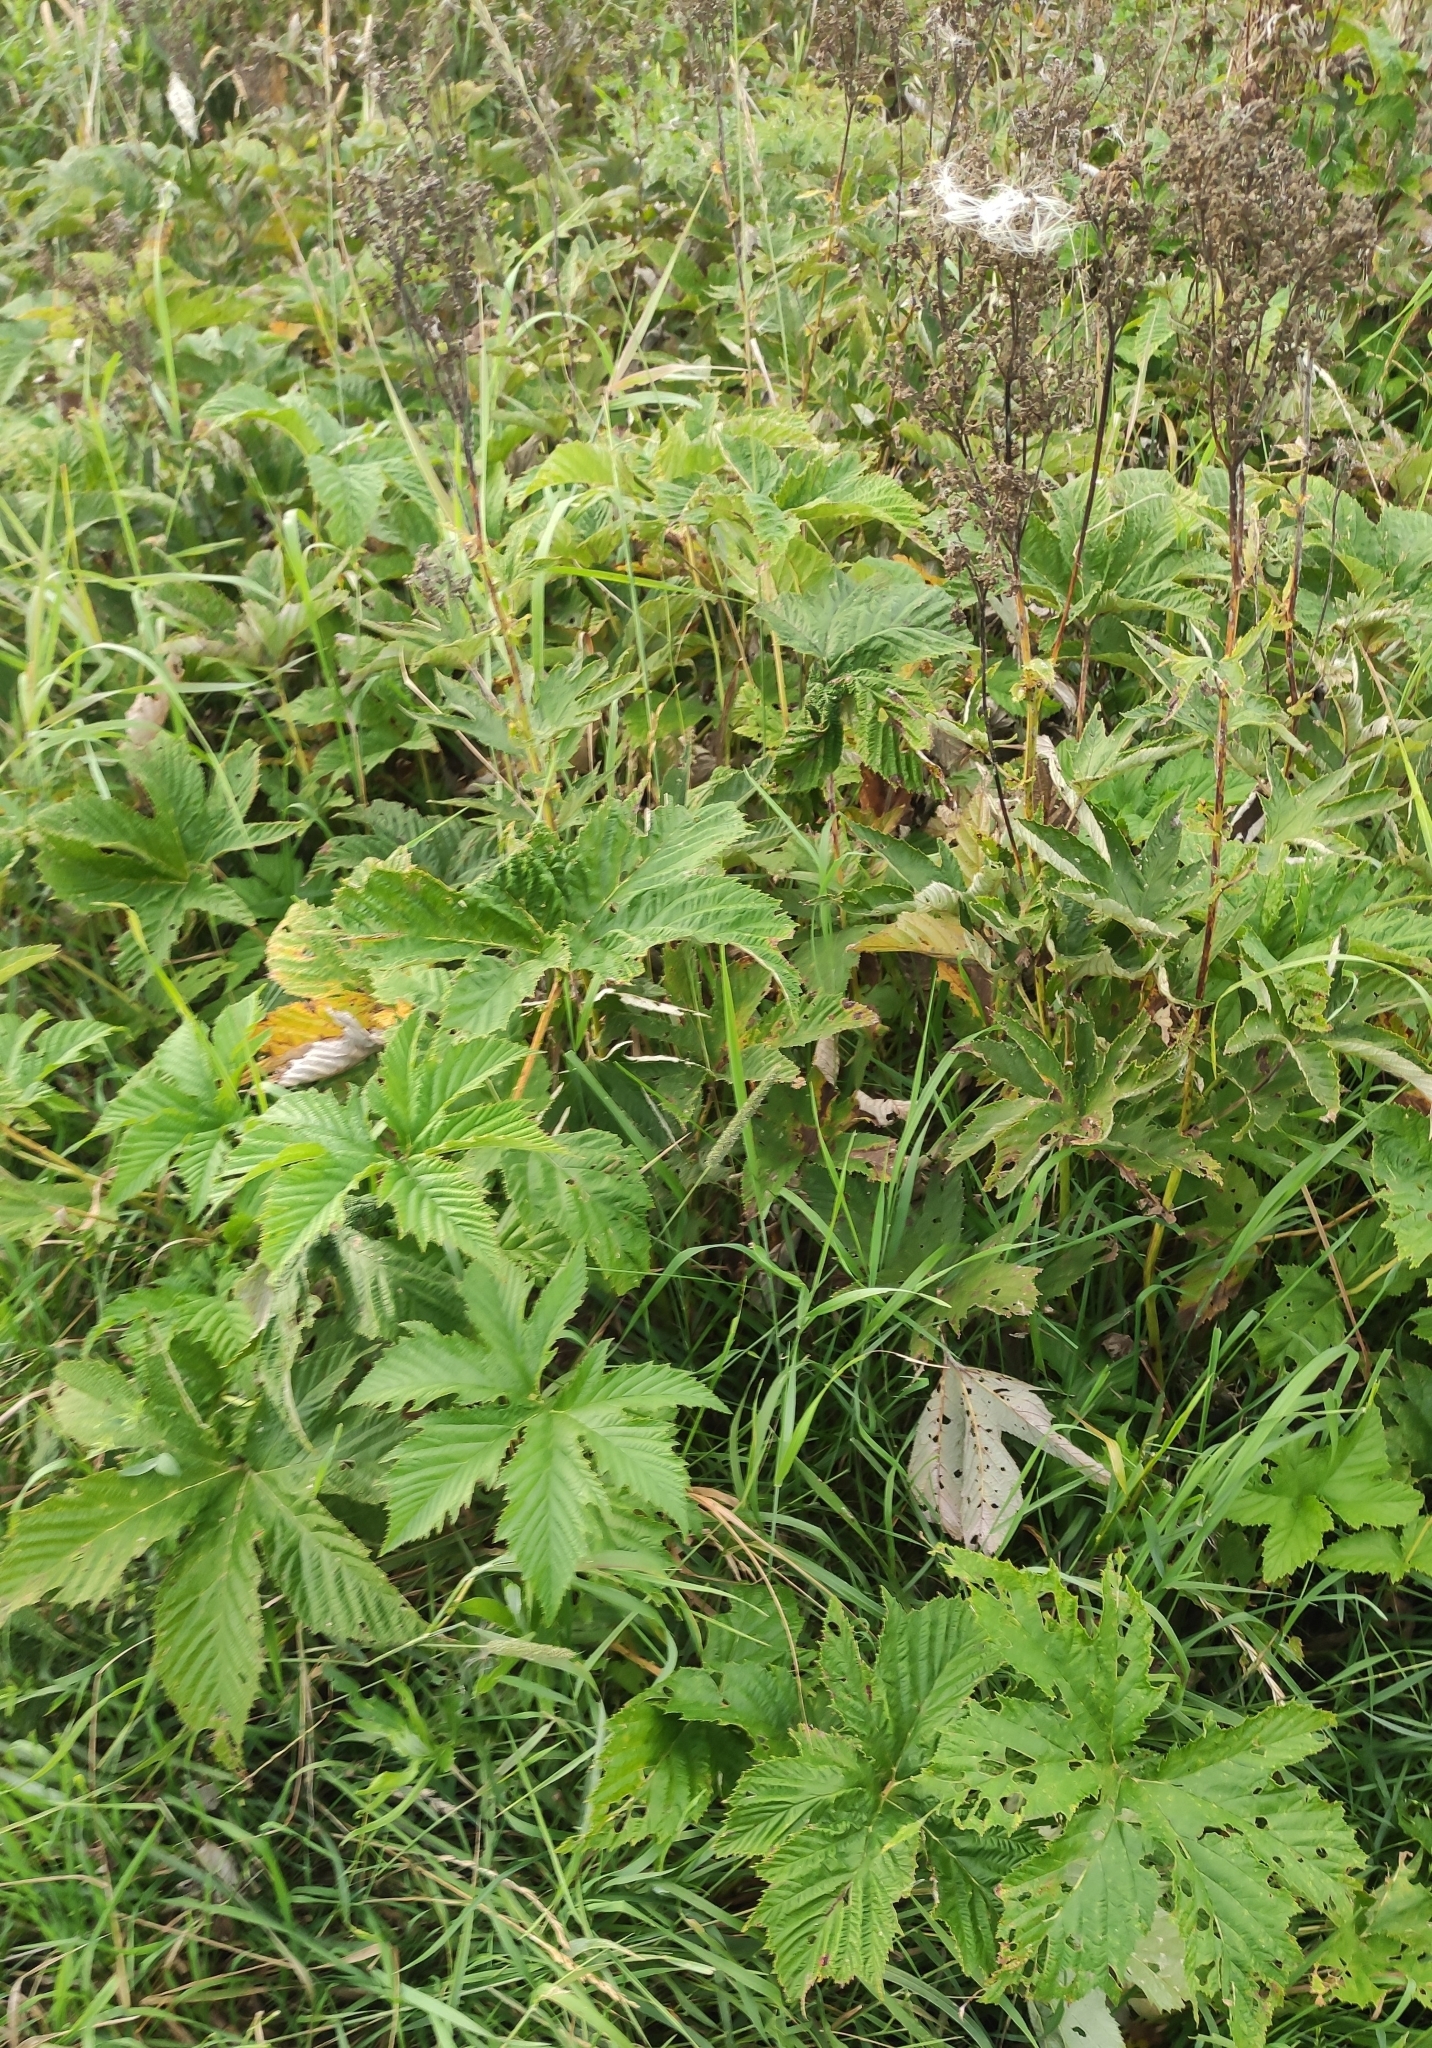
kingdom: Plantae
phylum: Tracheophyta
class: Magnoliopsida
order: Rosales
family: Rosaceae
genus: Filipendula
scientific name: Filipendula digitata
